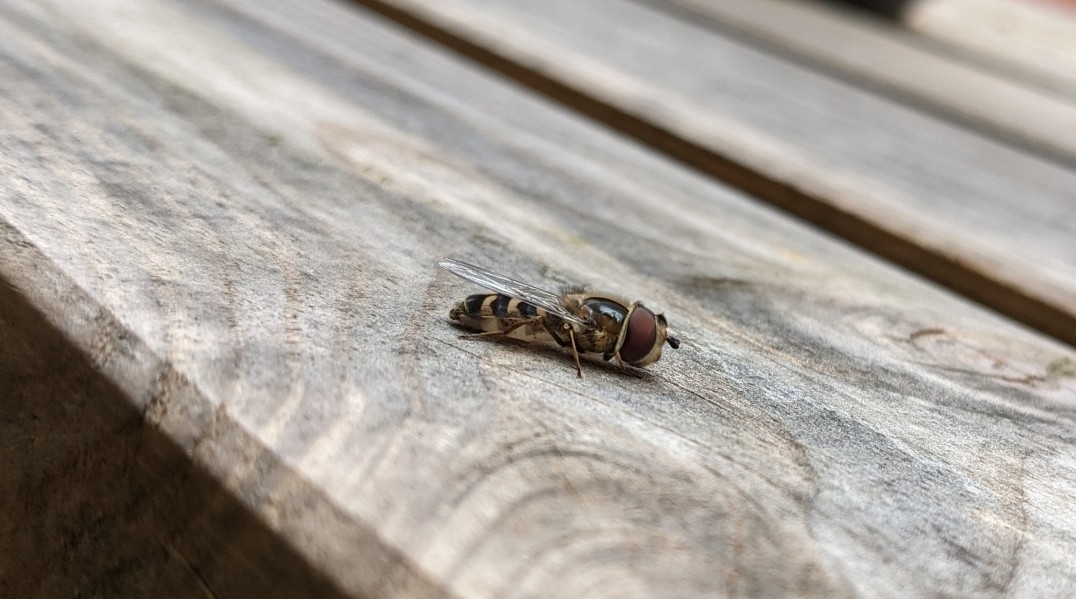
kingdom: Animalia
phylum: Arthropoda
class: Insecta
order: Diptera
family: Syrphidae
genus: Scaeva
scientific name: Scaeva selenitica
